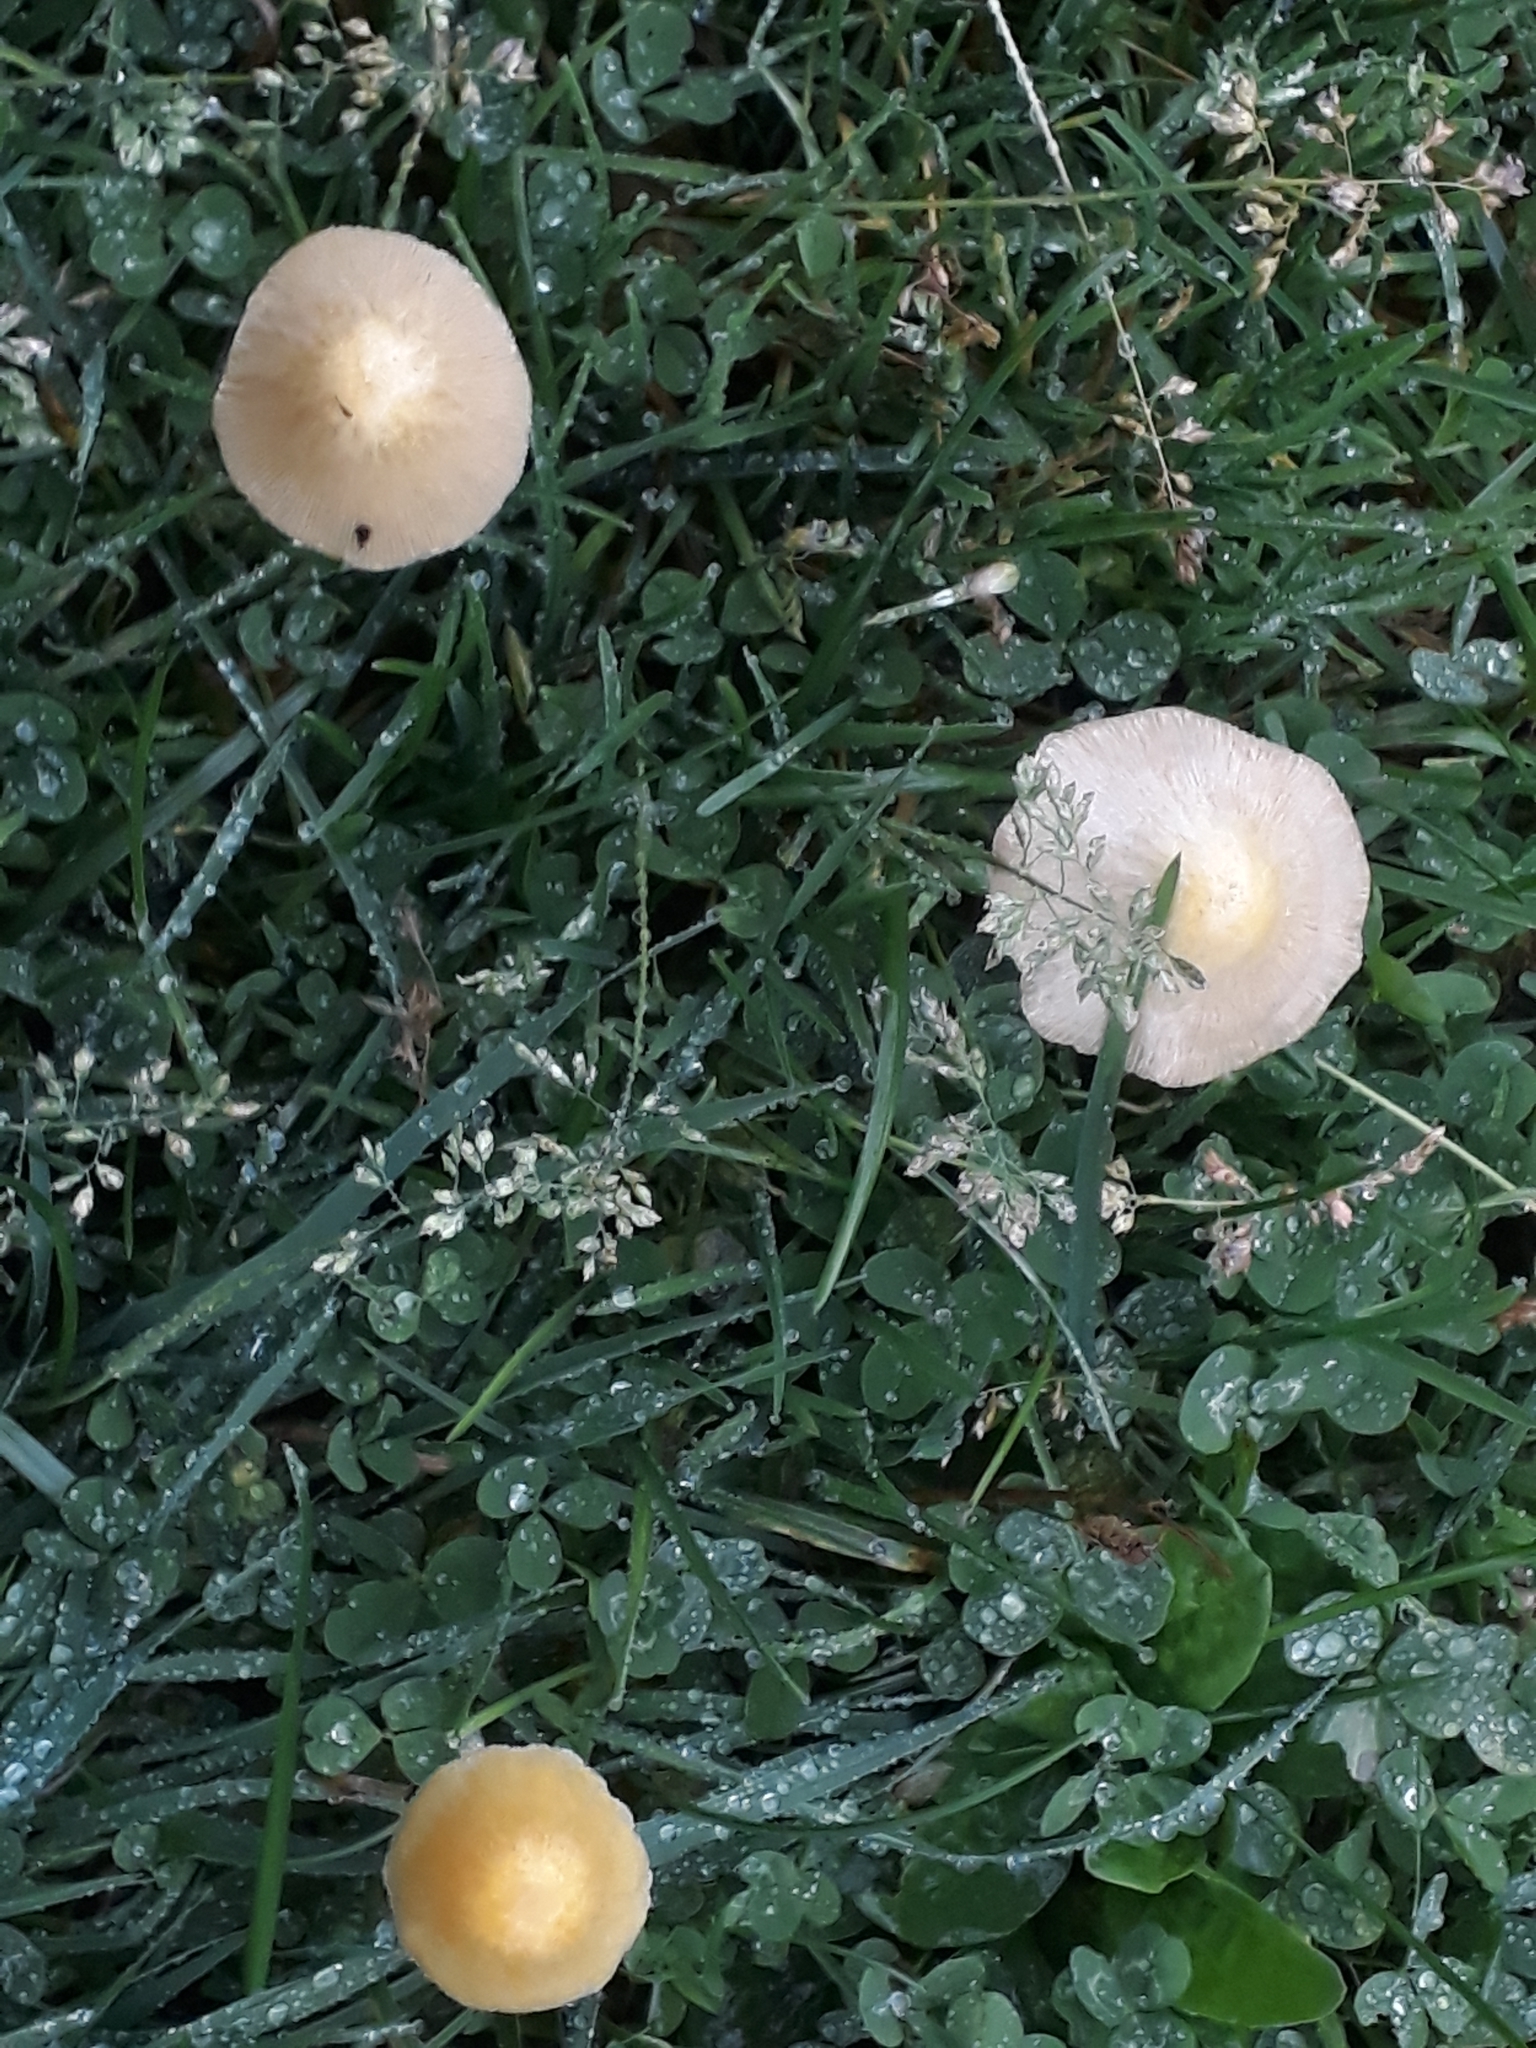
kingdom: Fungi
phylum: Basidiomycota
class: Agaricomycetes
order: Agaricales
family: Bolbitiaceae
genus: Bolbitius
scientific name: Bolbitius titubans
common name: Yellow fieldcap
